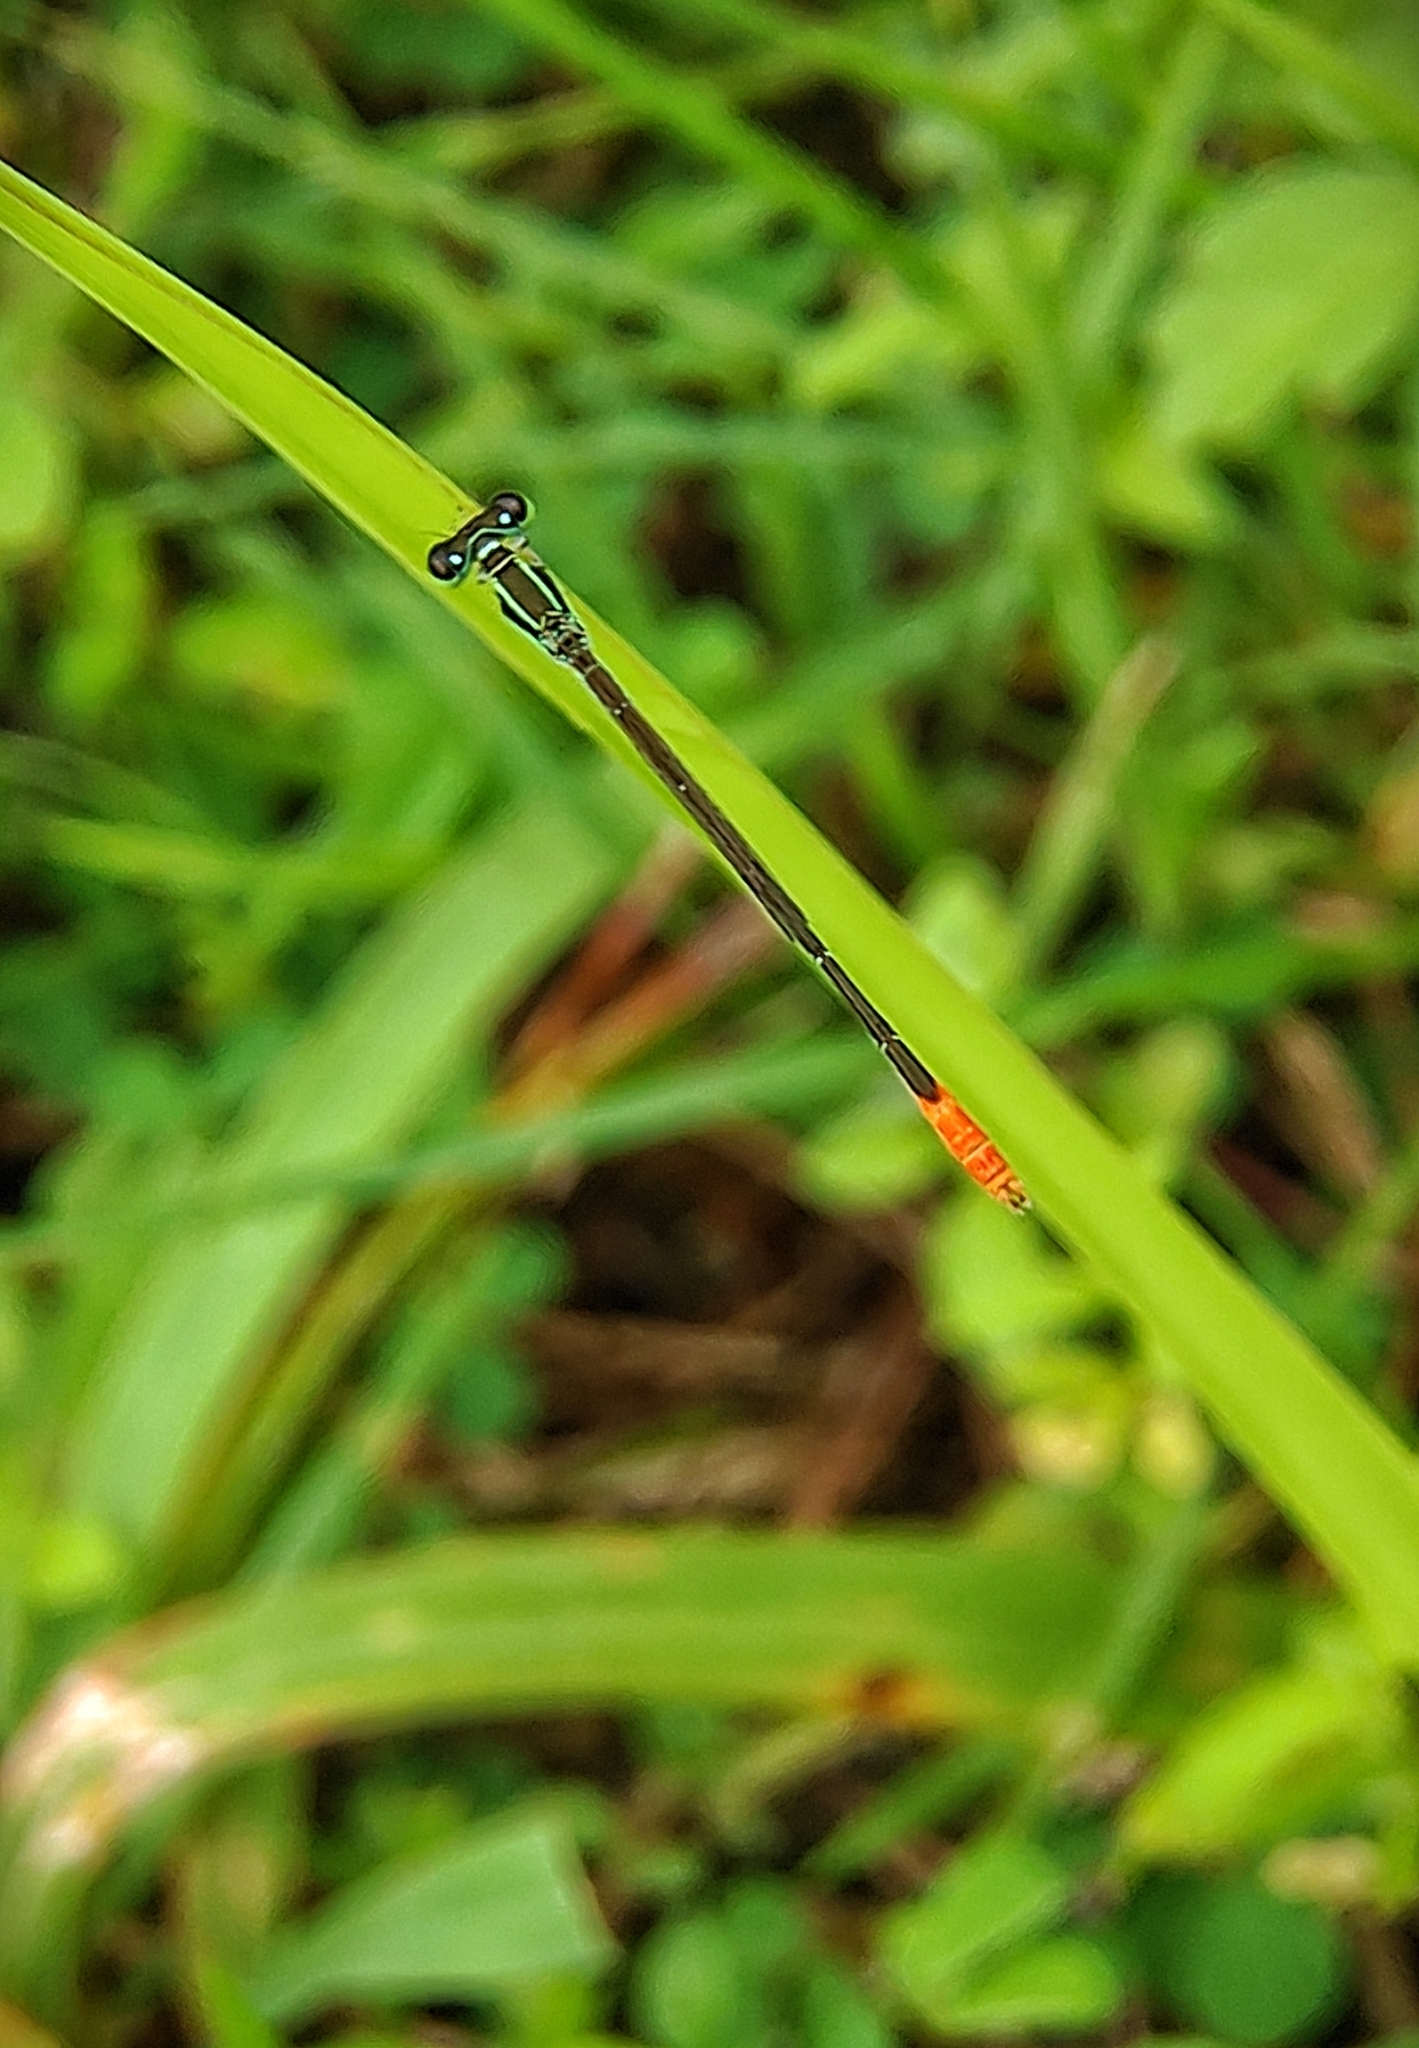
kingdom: Animalia
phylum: Arthropoda
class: Insecta
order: Odonata
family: Coenagrionidae
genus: Agriocnemis
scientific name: Agriocnemis femina
